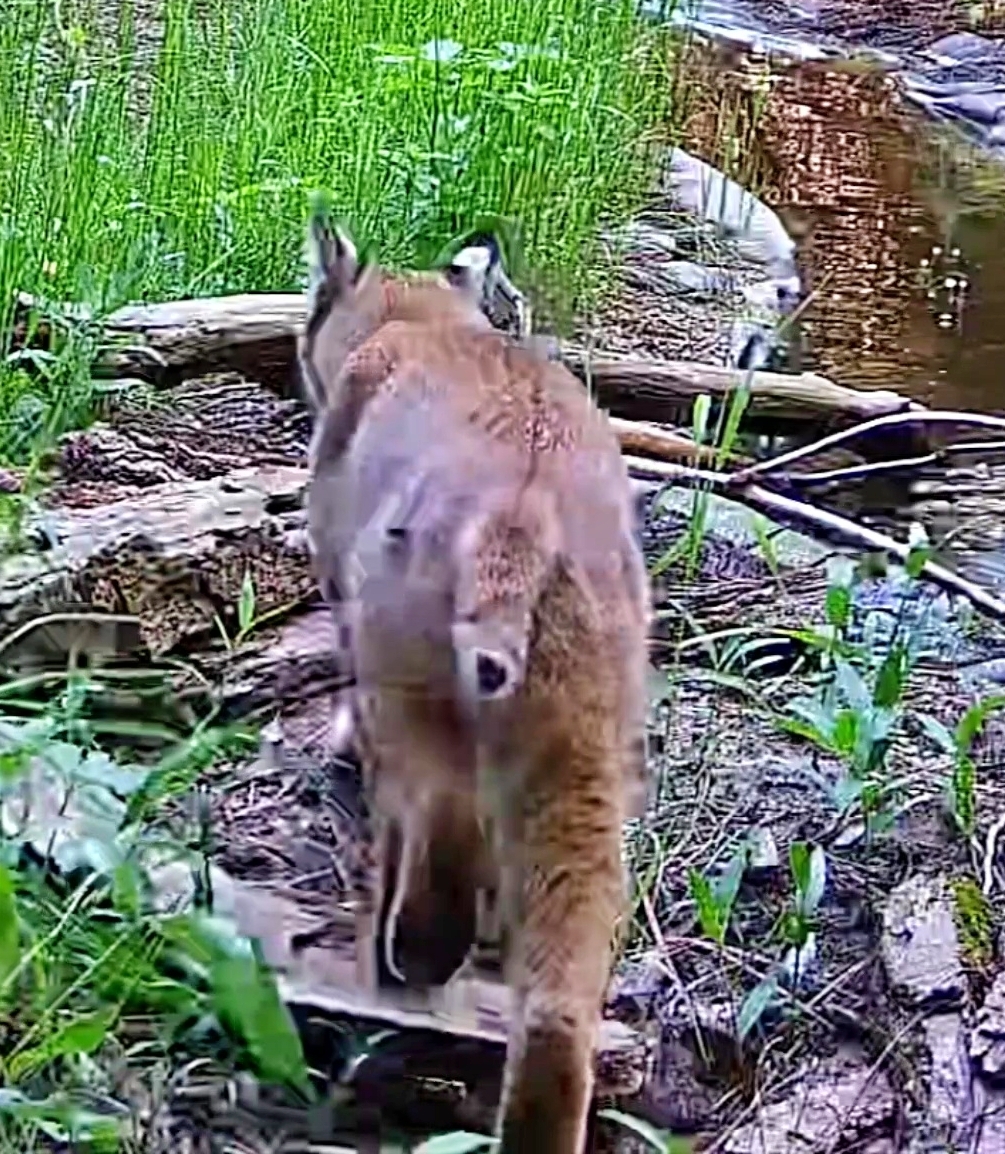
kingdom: Animalia
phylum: Chordata
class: Mammalia
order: Carnivora
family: Felidae
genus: Lynx
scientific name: Lynx rufus
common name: Bobcat
